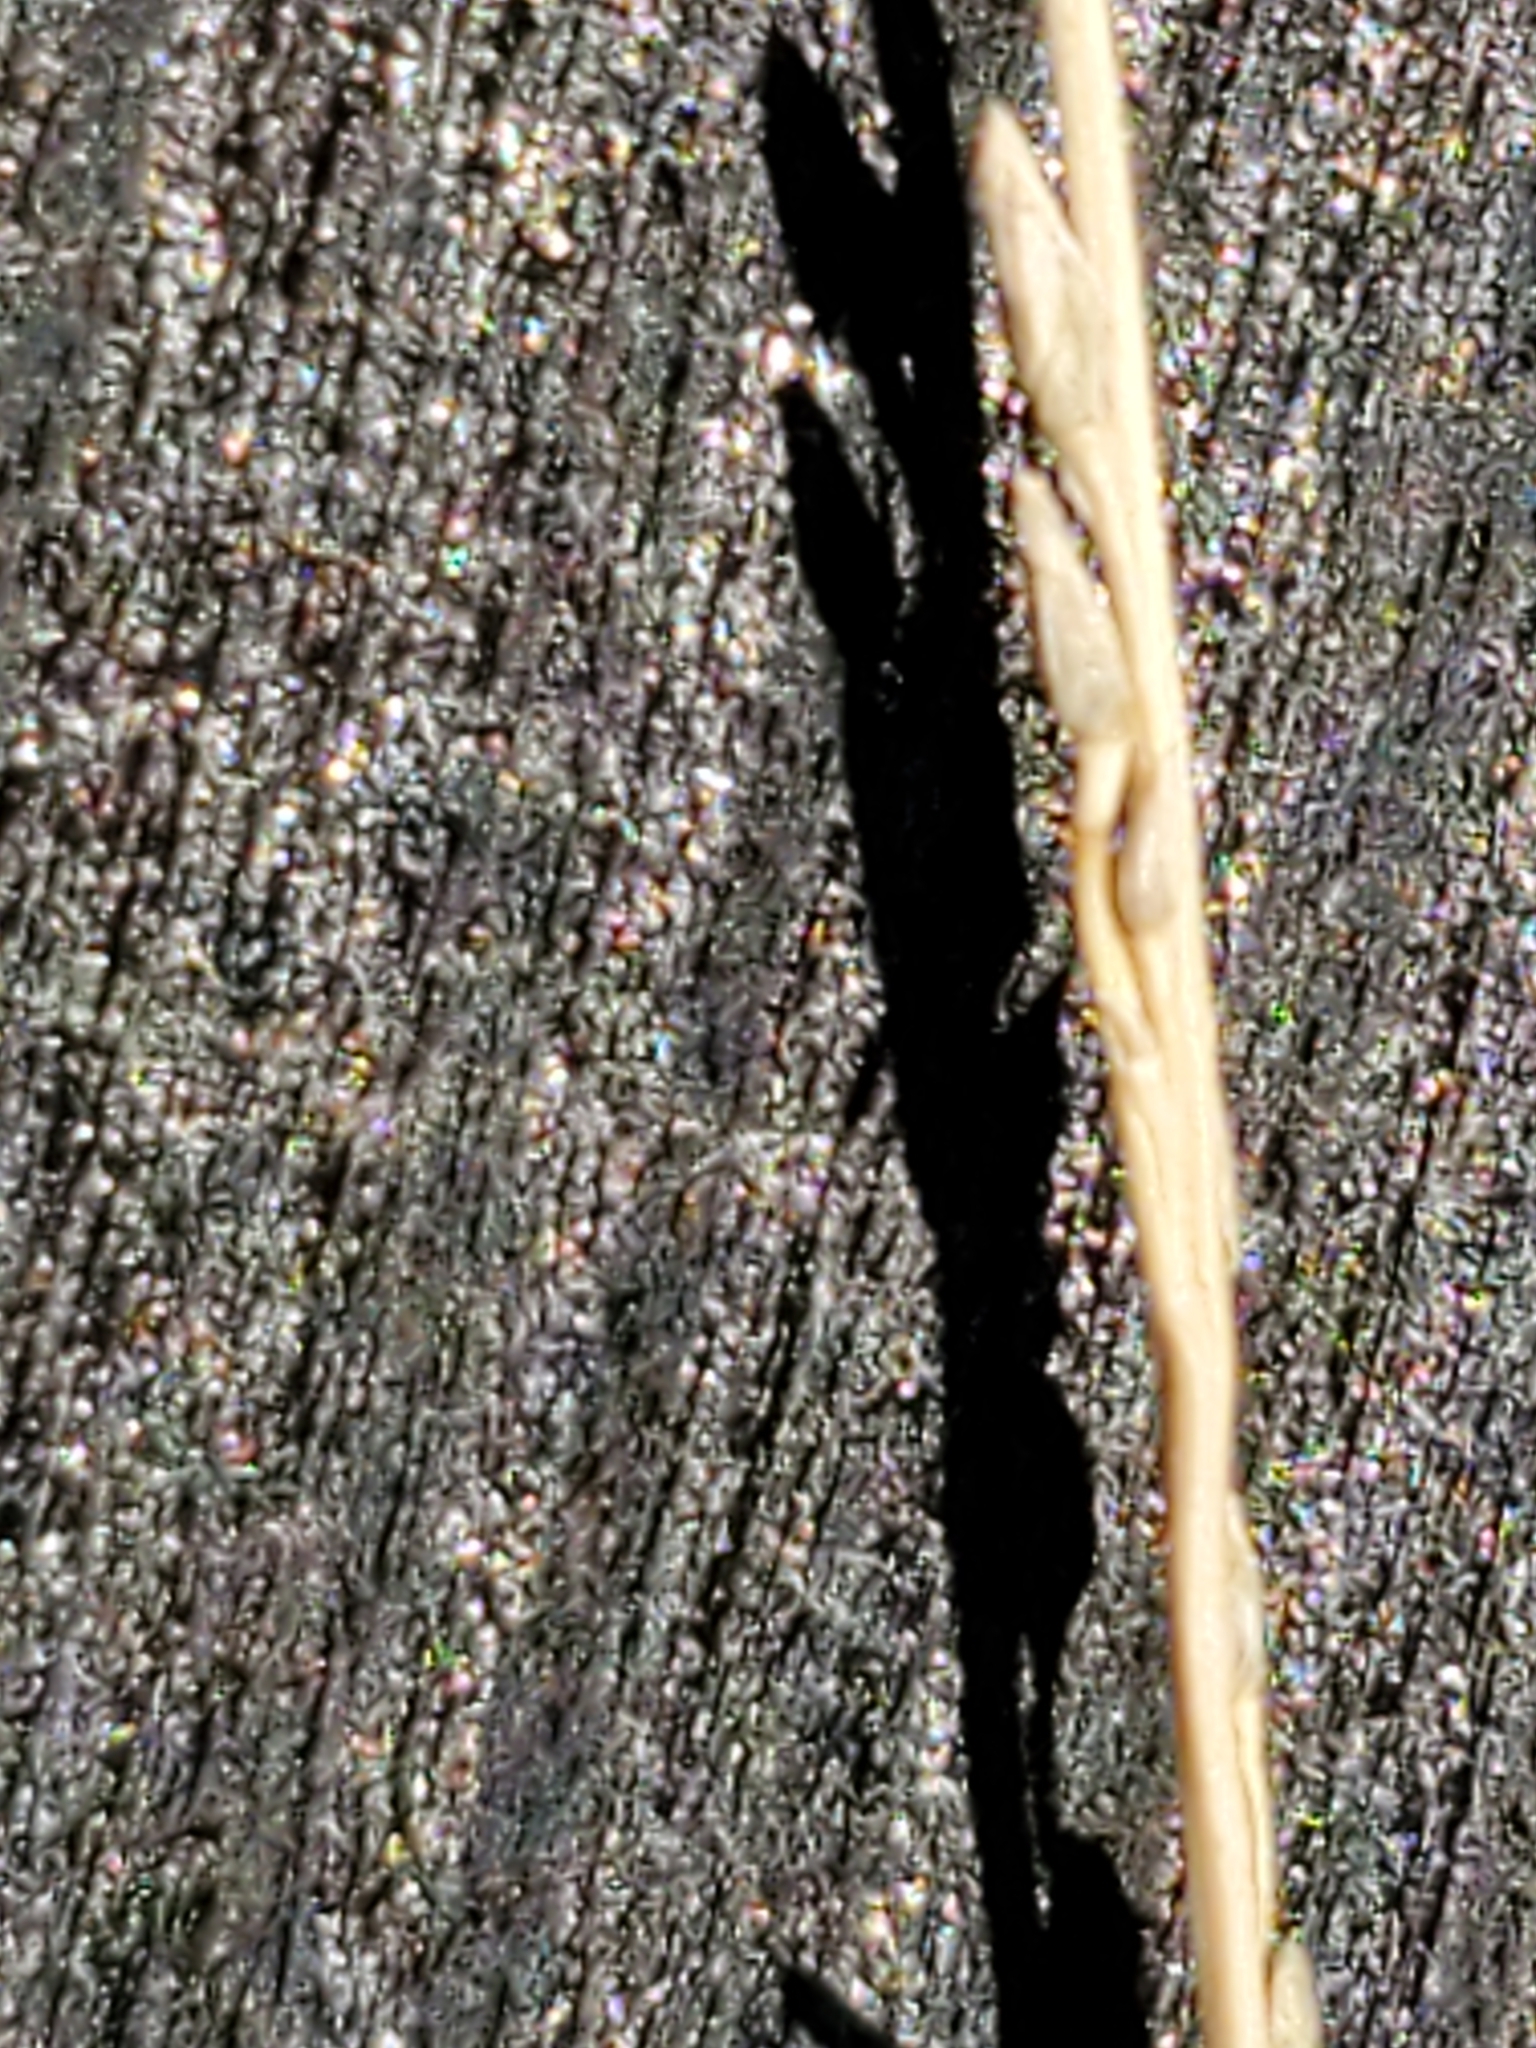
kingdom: Plantae
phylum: Tracheophyta
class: Liliopsida
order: Poales
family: Poaceae
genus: Setaria
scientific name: Setaria reverchonii
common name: Reverchon's bristle grass
